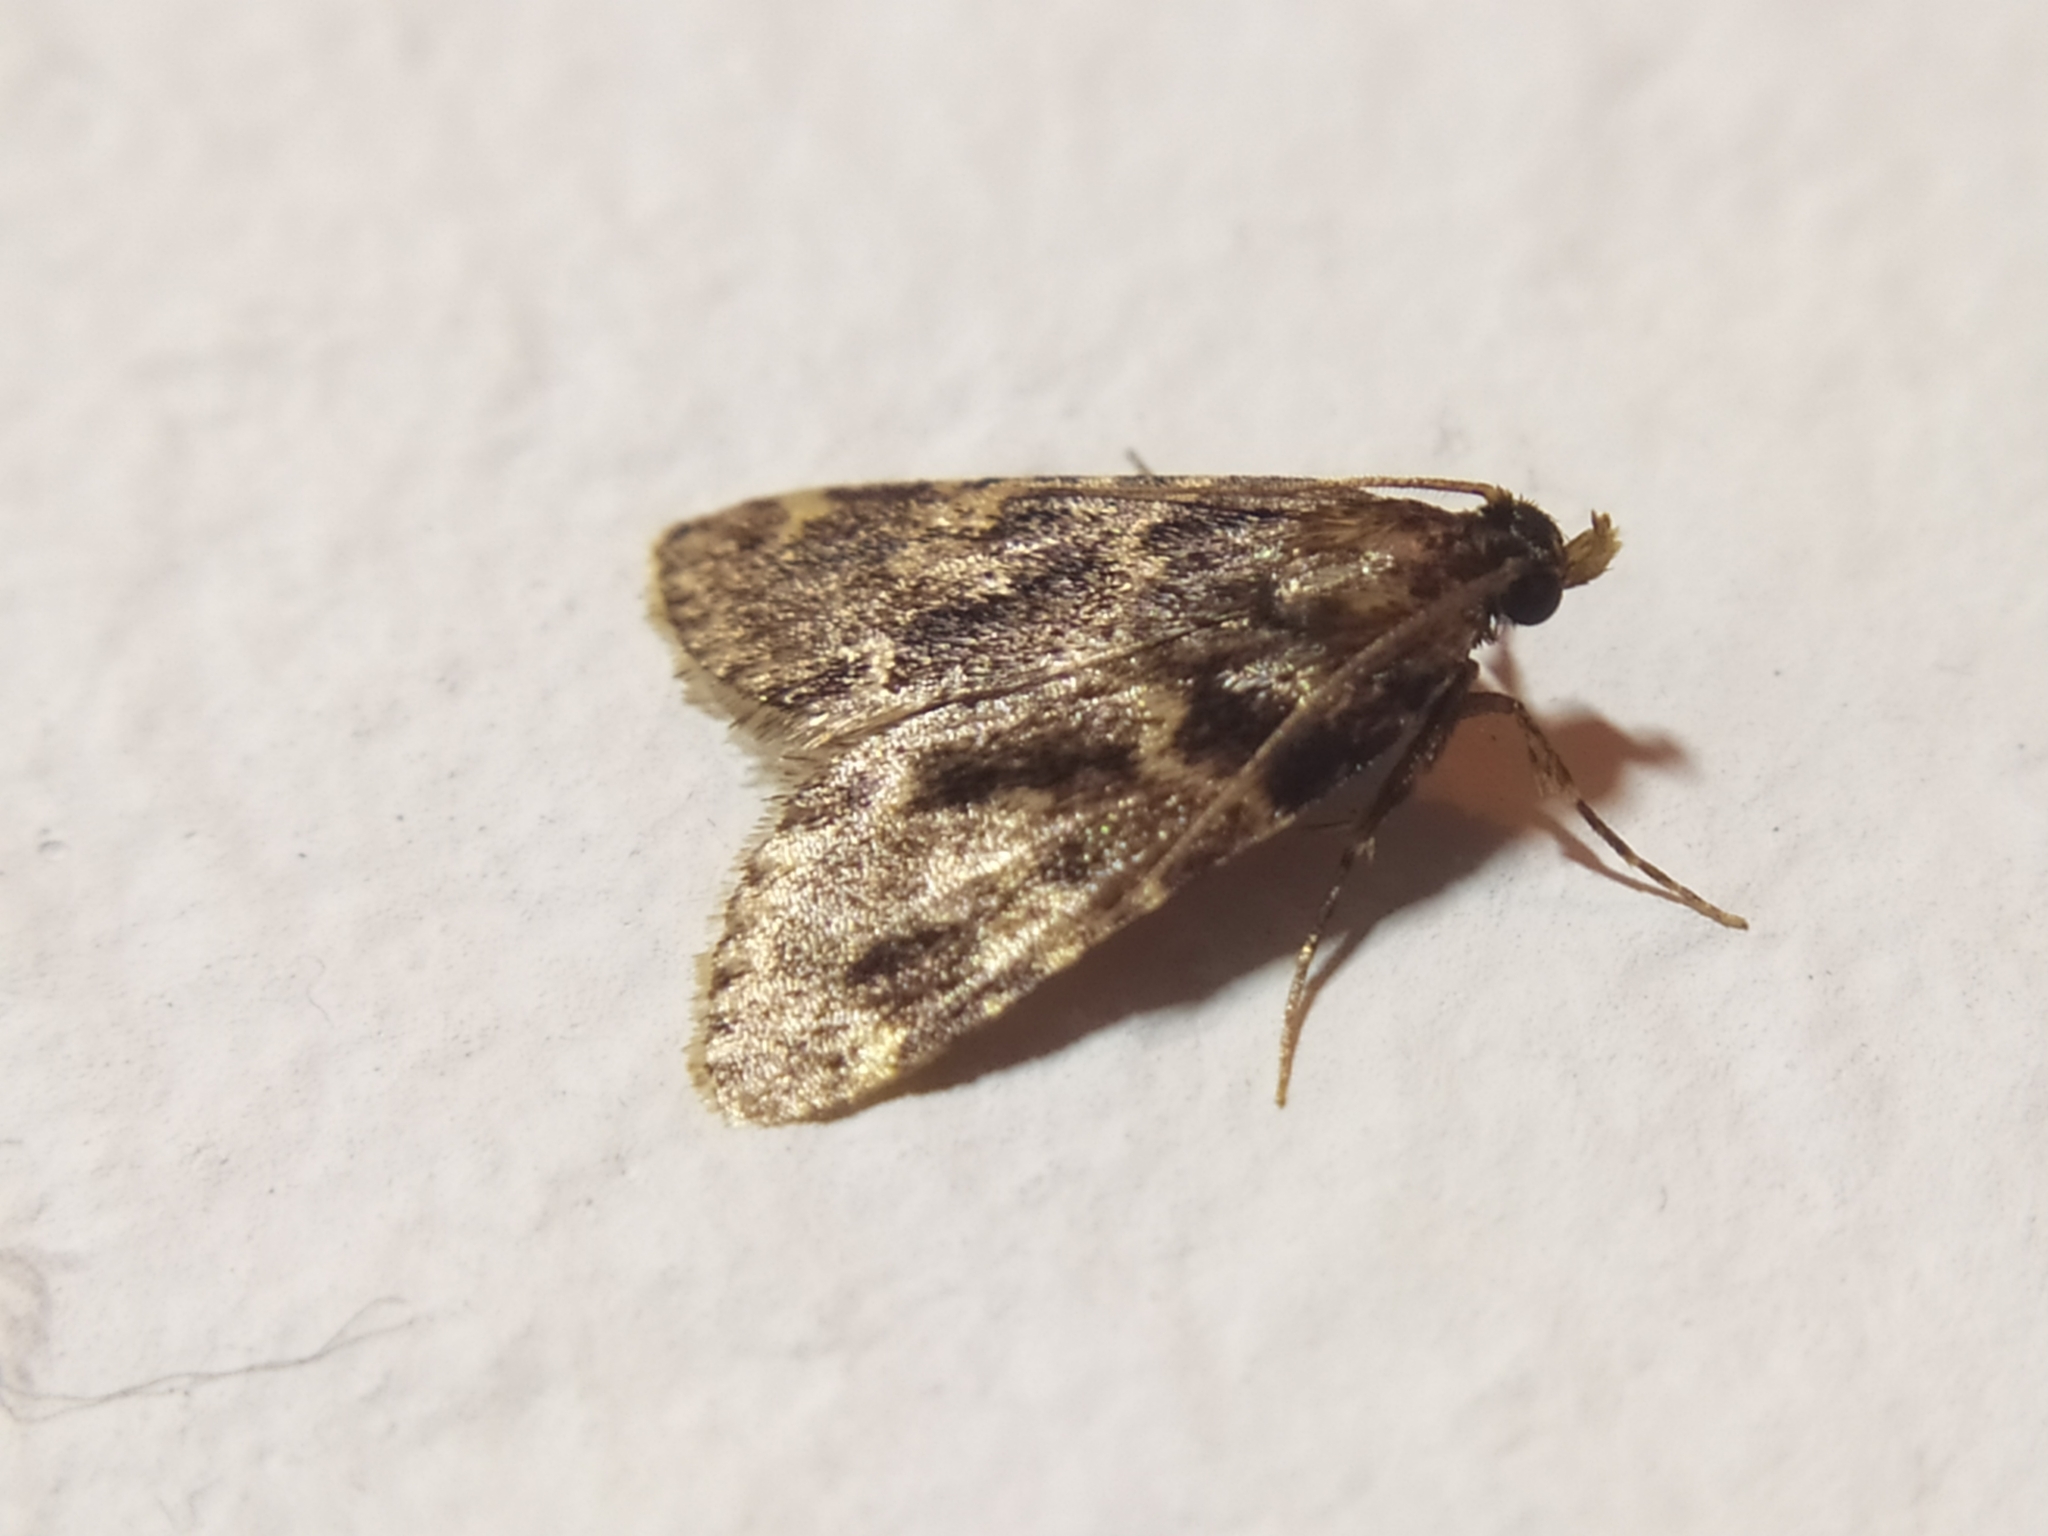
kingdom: Animalia
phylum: Arthropoda
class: Insecta
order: Lepidoptera
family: Pyralidae
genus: Aglossa
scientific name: Aglossa caprealis
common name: Small tabby
